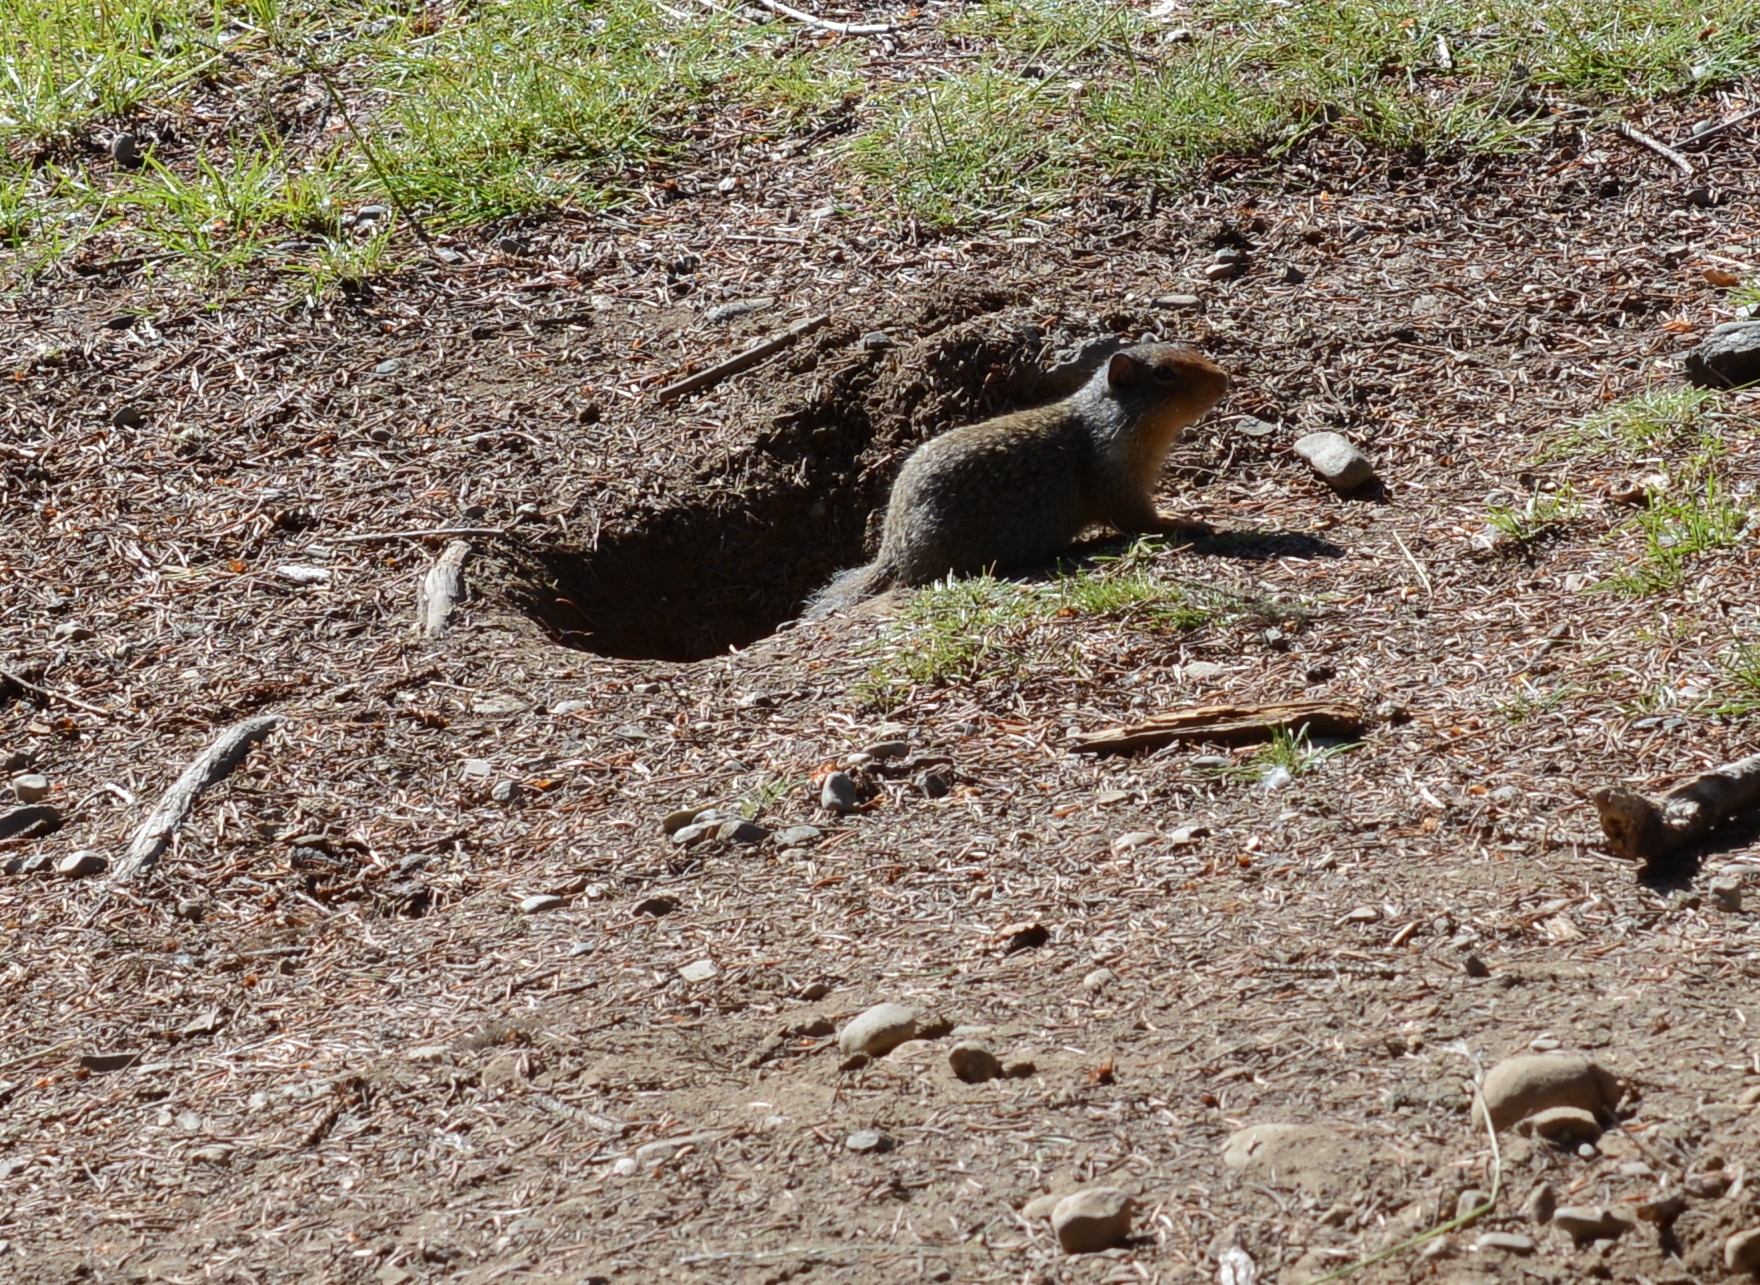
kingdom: Animalia
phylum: Chordata
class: Mammalia
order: Rodentia
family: Sciuridae
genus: Urocitellus
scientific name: Urocitellus columbianus
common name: Columbian ground squirrel
